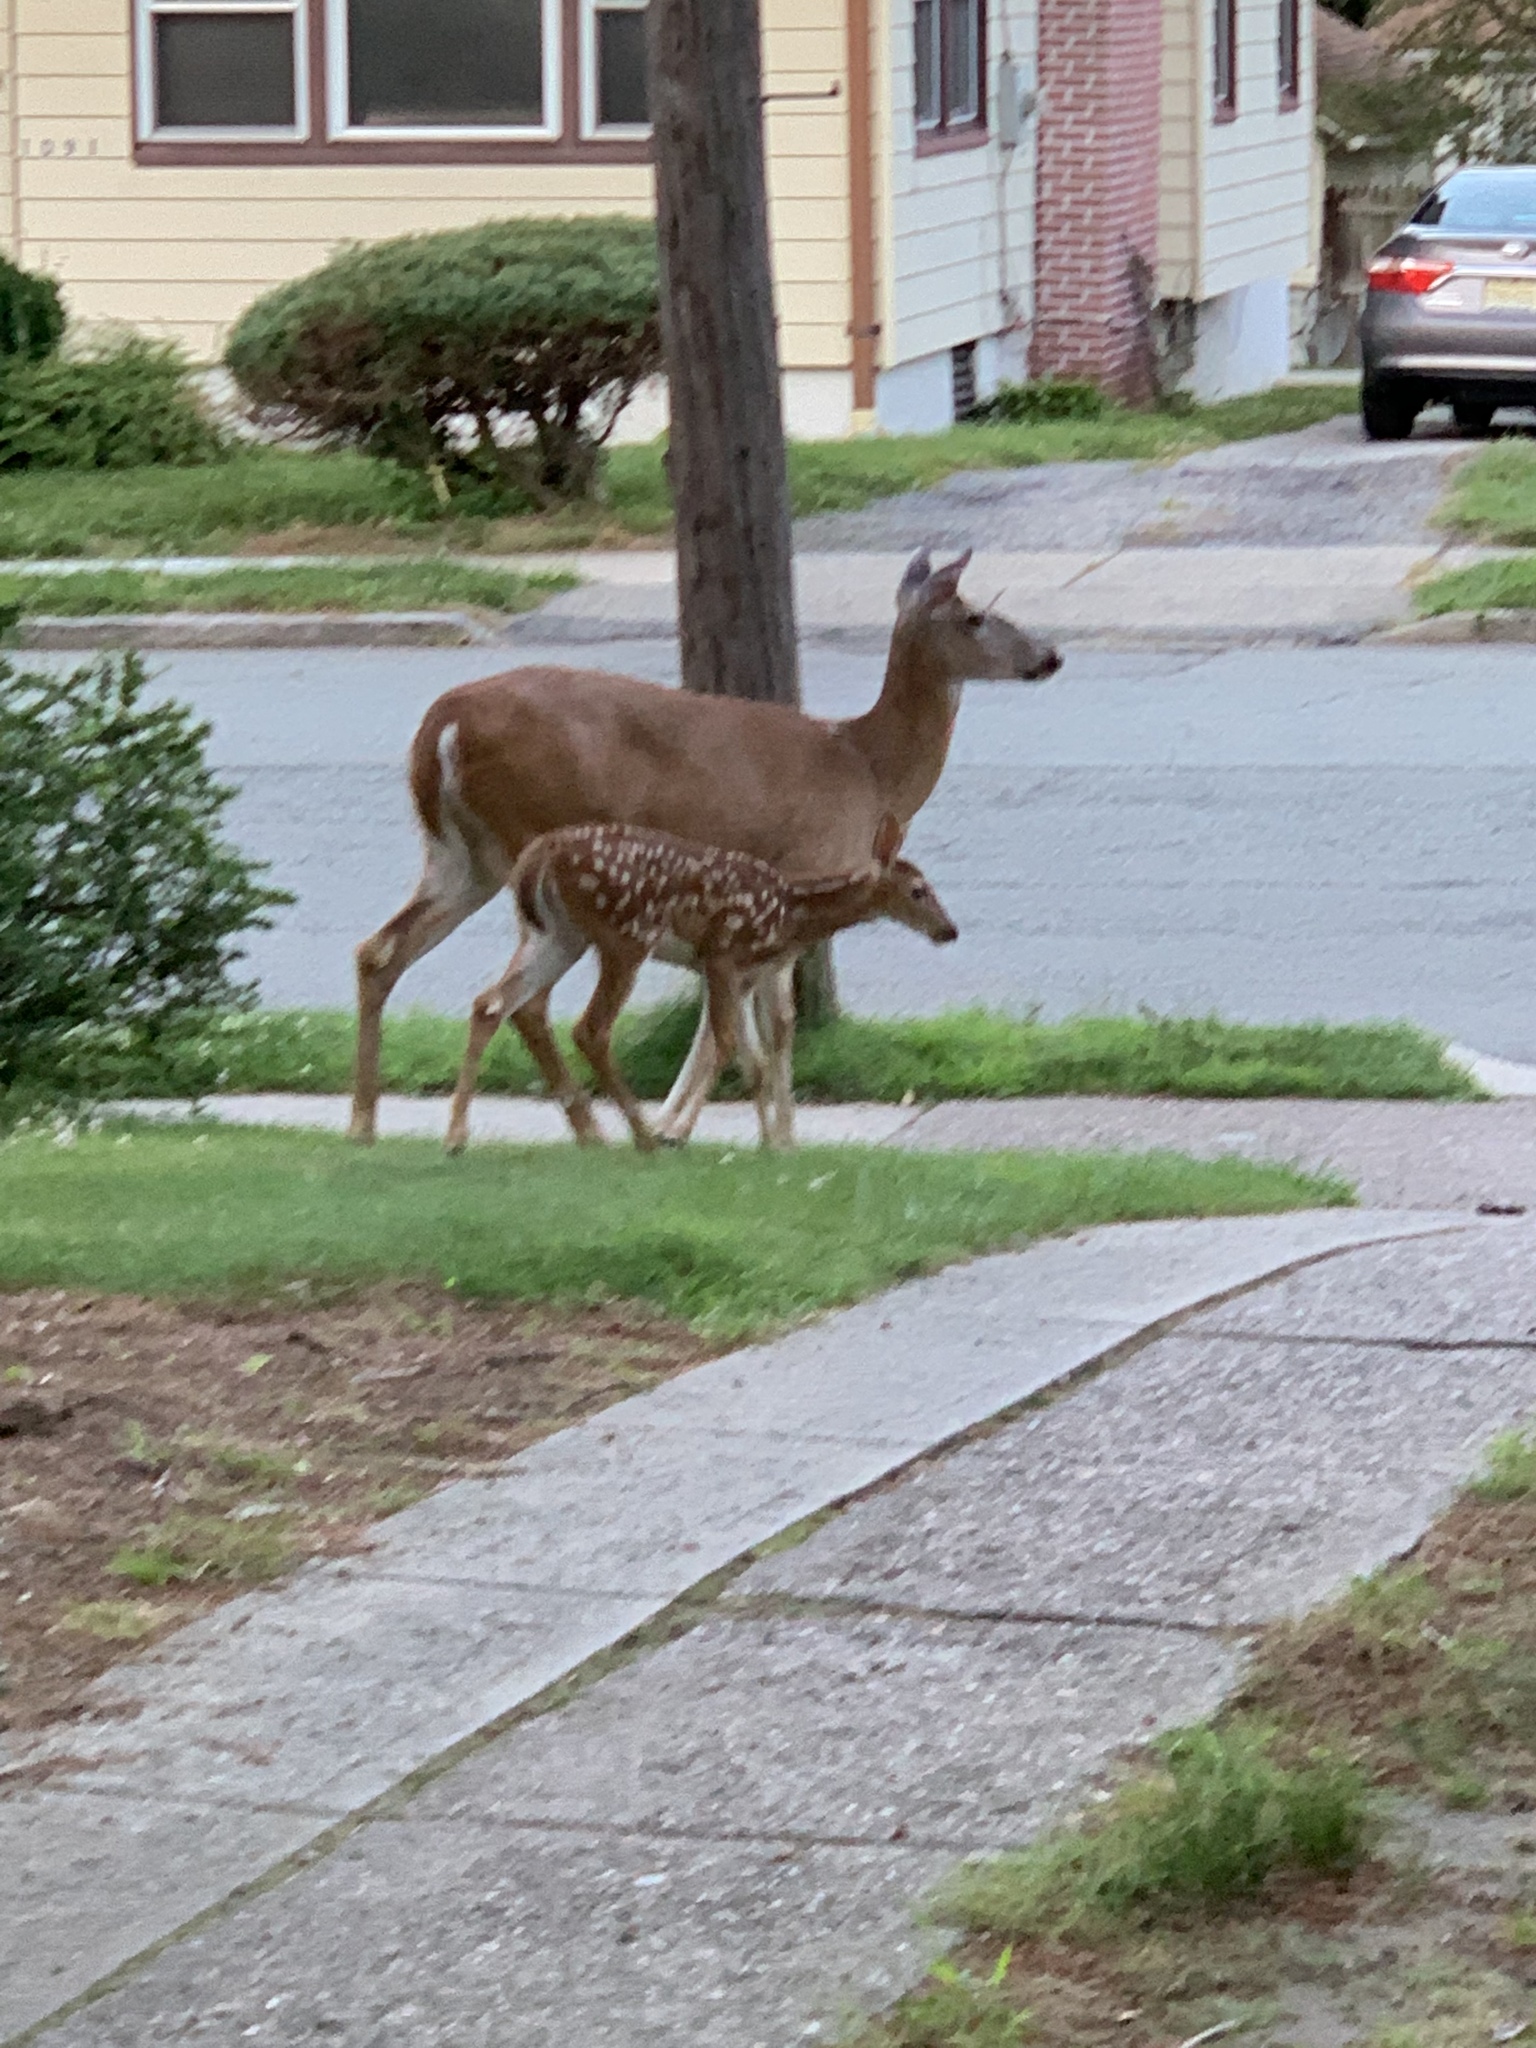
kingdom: Animalia
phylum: Chordata
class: Mammalia
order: Artiodactyla
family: Cervidae
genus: Odocoileus
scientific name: Odocoileus virginianus
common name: White-tailed deer
